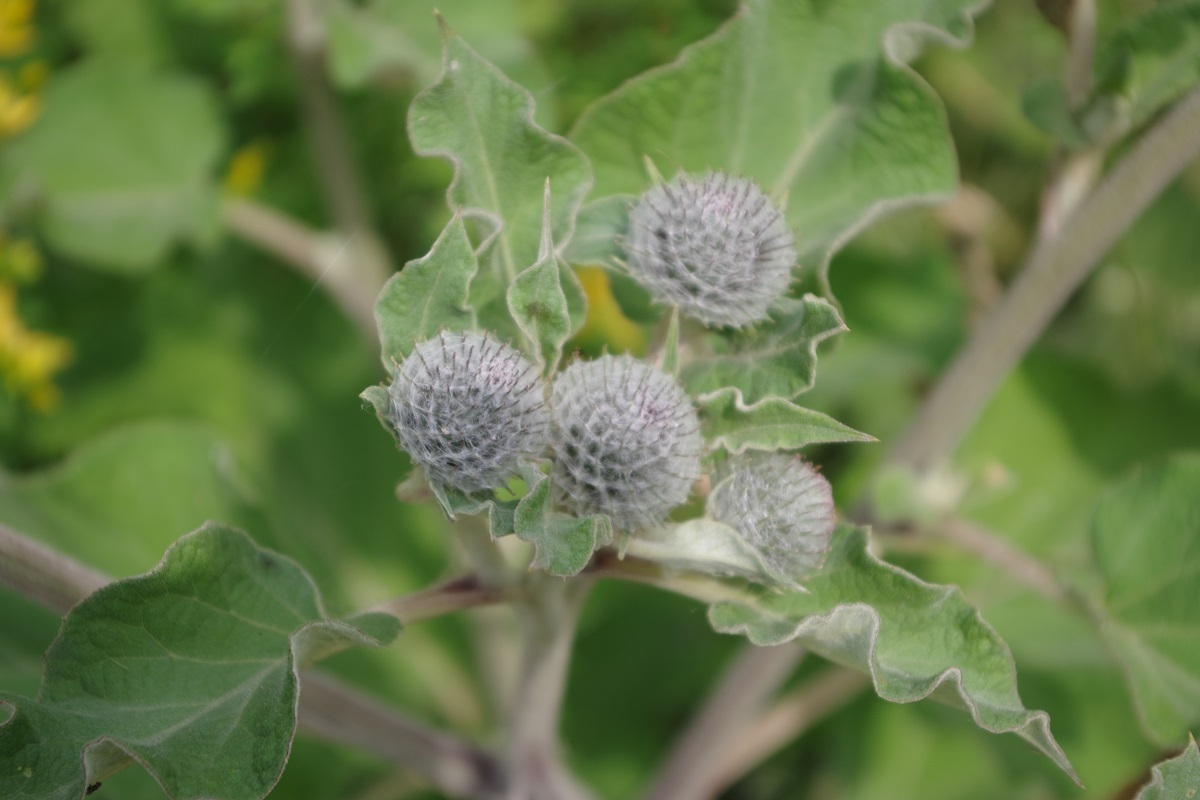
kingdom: Plantae
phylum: Tracheophyta
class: Magnoliopsida
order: Asterales
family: Asteraceae
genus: Arctium
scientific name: Arctium tomentosum
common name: Woolly burdock
